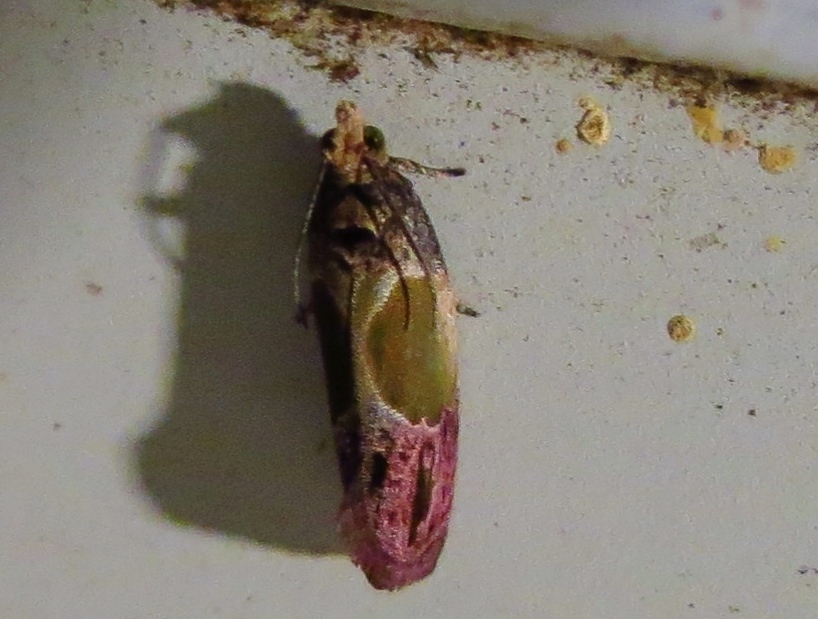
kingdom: Animalia
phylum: Arthropoda
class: Insecta
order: Lepidoptera
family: Tortricidae
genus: Eumarozia
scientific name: Eumarozia malachitana
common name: Sculptured moth
